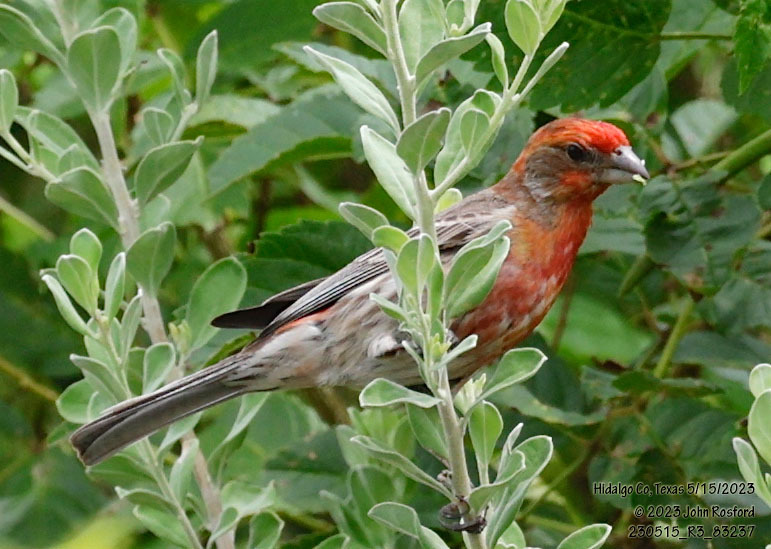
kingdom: Animalia
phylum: Chordata
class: Aves
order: Passeriformes
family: Fringillidae
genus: Haemorhous
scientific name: Haemorhous mexicanus
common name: House finch
